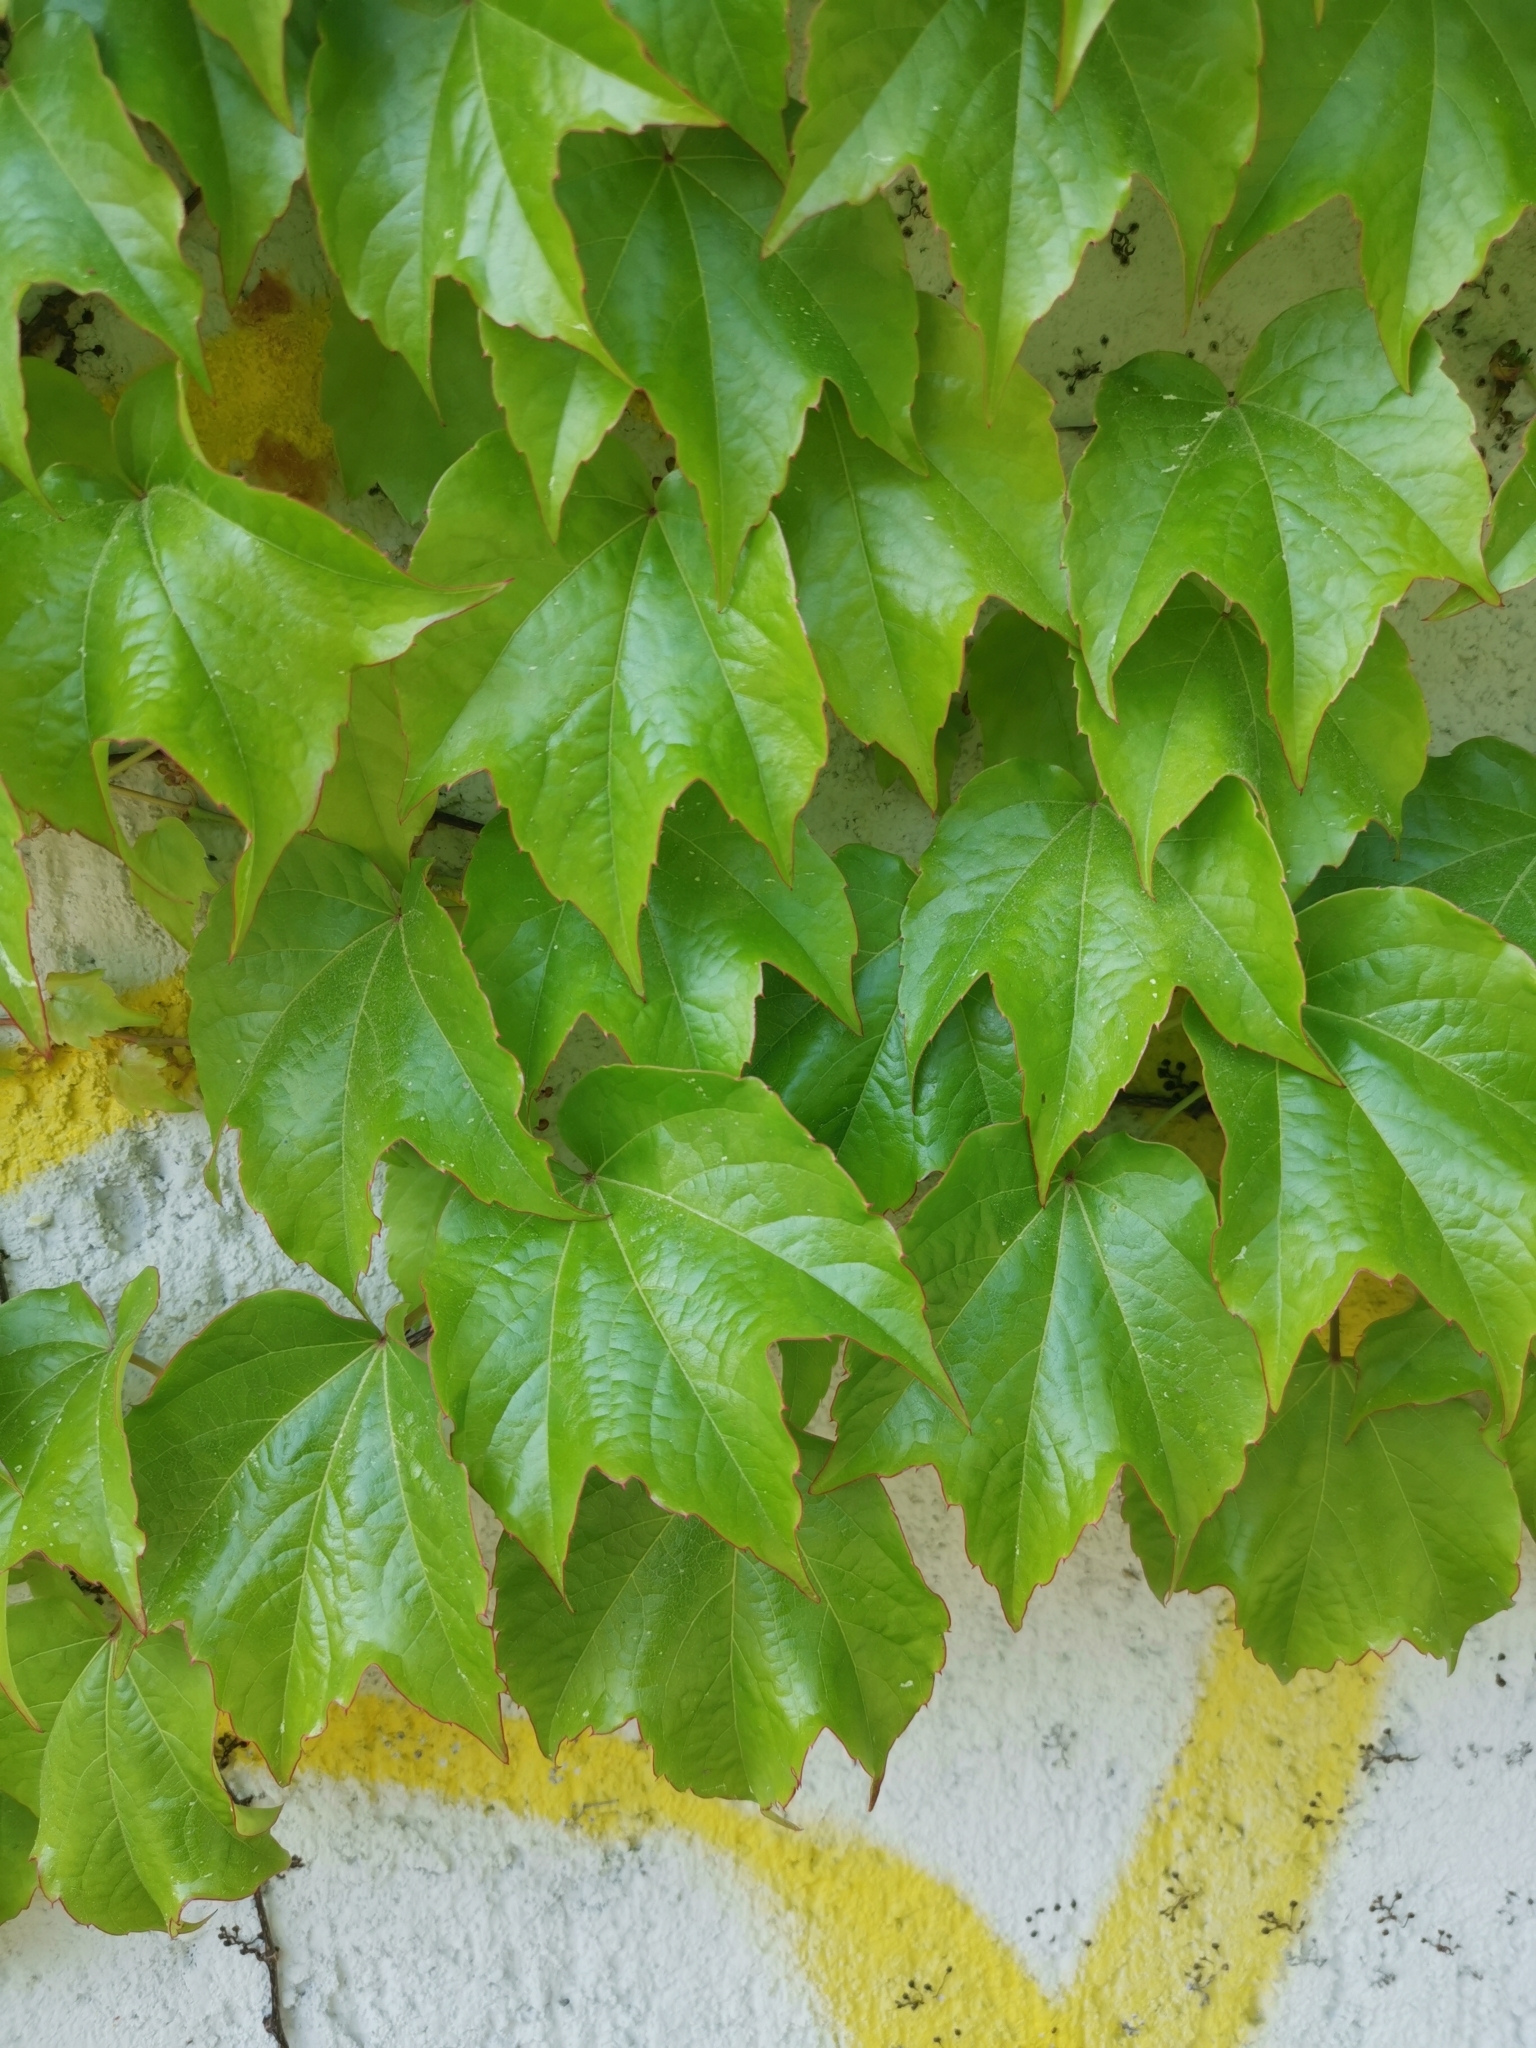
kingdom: Plantae
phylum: Tracheophyta
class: Magnoliopsida
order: Vitales
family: Vitaceae
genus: Parthenocissus
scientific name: Parthenocissus tricuspidata
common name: Boston ivy
